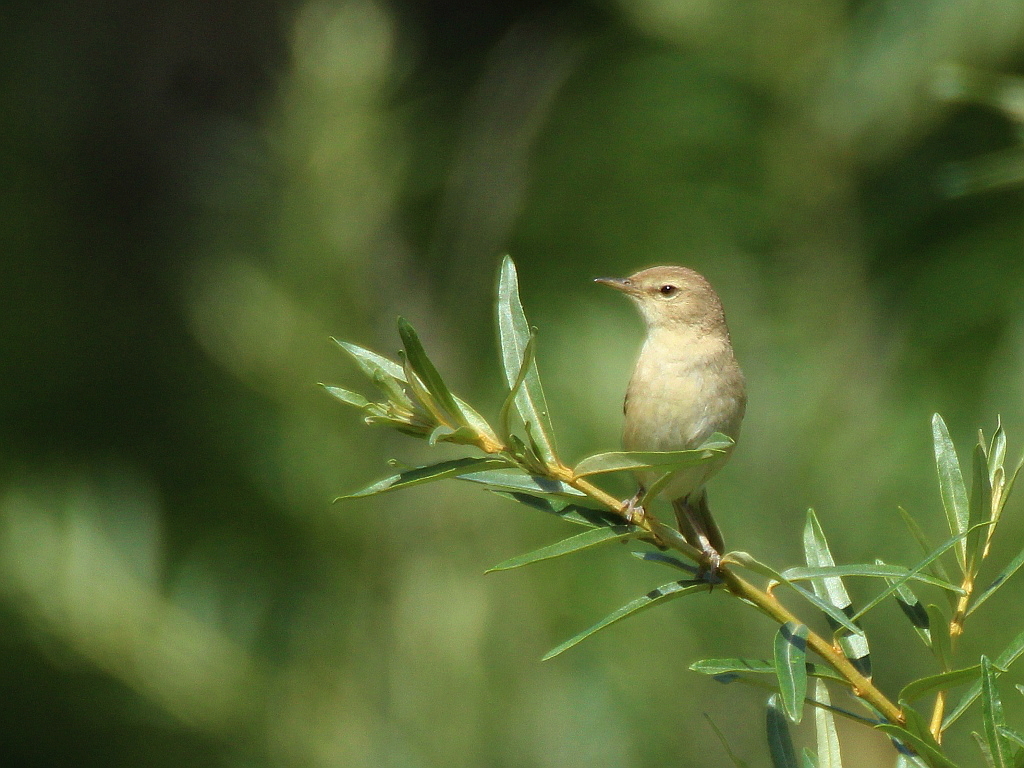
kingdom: Animalia
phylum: Chordata
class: Aves
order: Passeriformes
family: Acrocephalidae
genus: Iduna
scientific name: Iduna caligata
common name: Booted warbler
